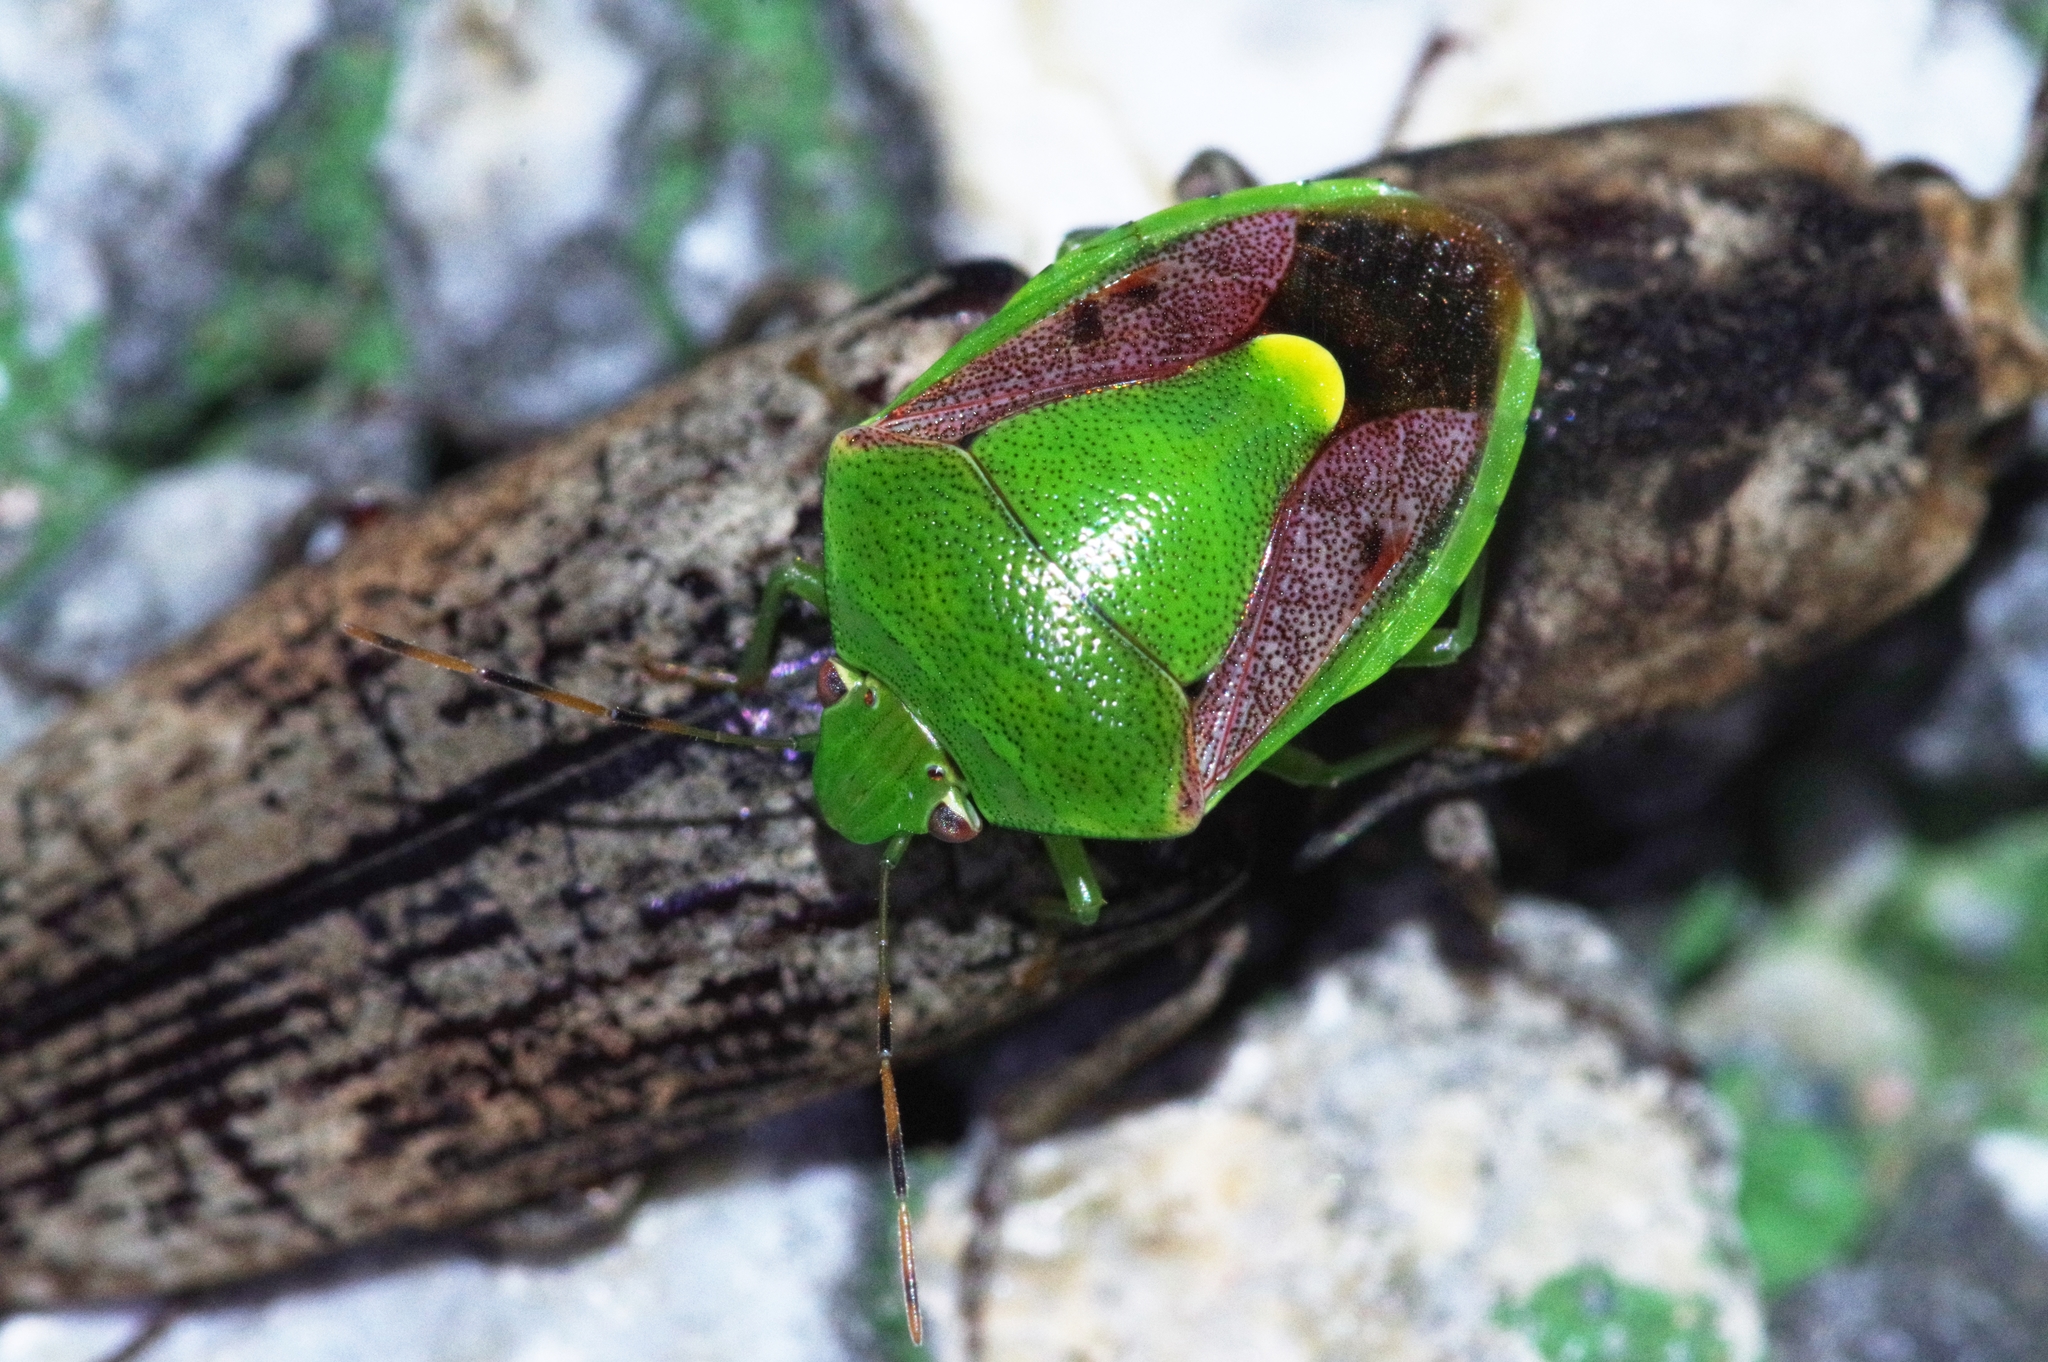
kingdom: Animalia
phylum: Arthropoda
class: Insecta
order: Hemiptera
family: Pentatomidae
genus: Plautia
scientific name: Plautia stali
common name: Stink bug
